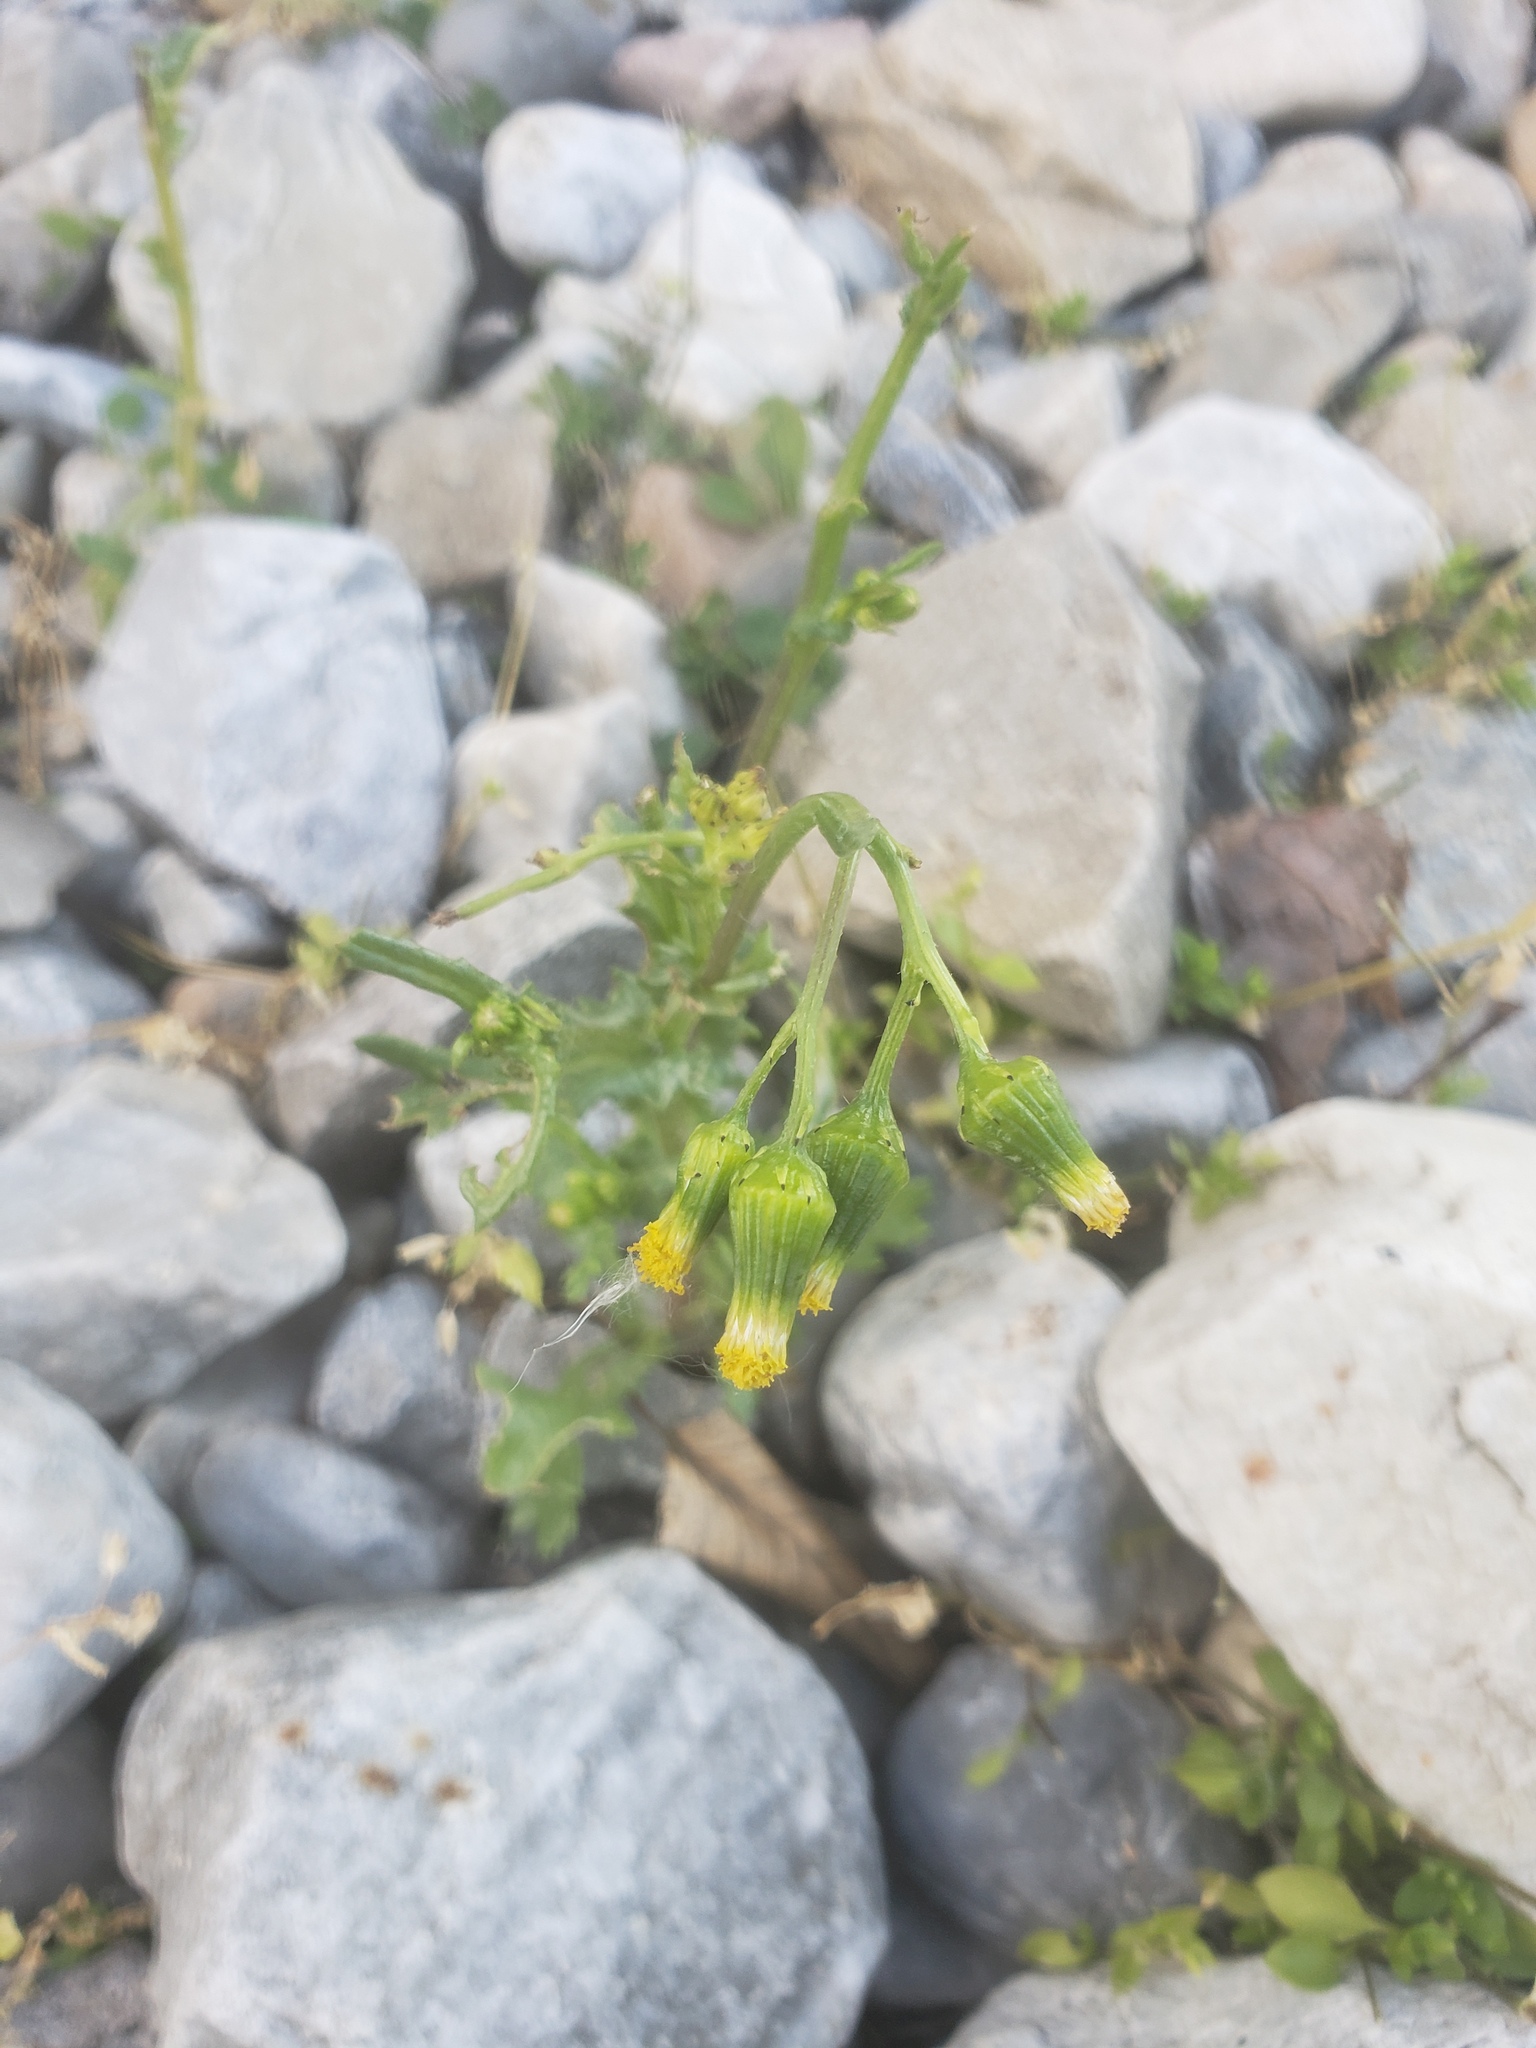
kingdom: Plantae
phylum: Tracheophyta
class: Magnoliopsida
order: Asterales
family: Asteraceae
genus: Senecio
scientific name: Senecio vulgaris
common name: Old-man-in-the-spring
